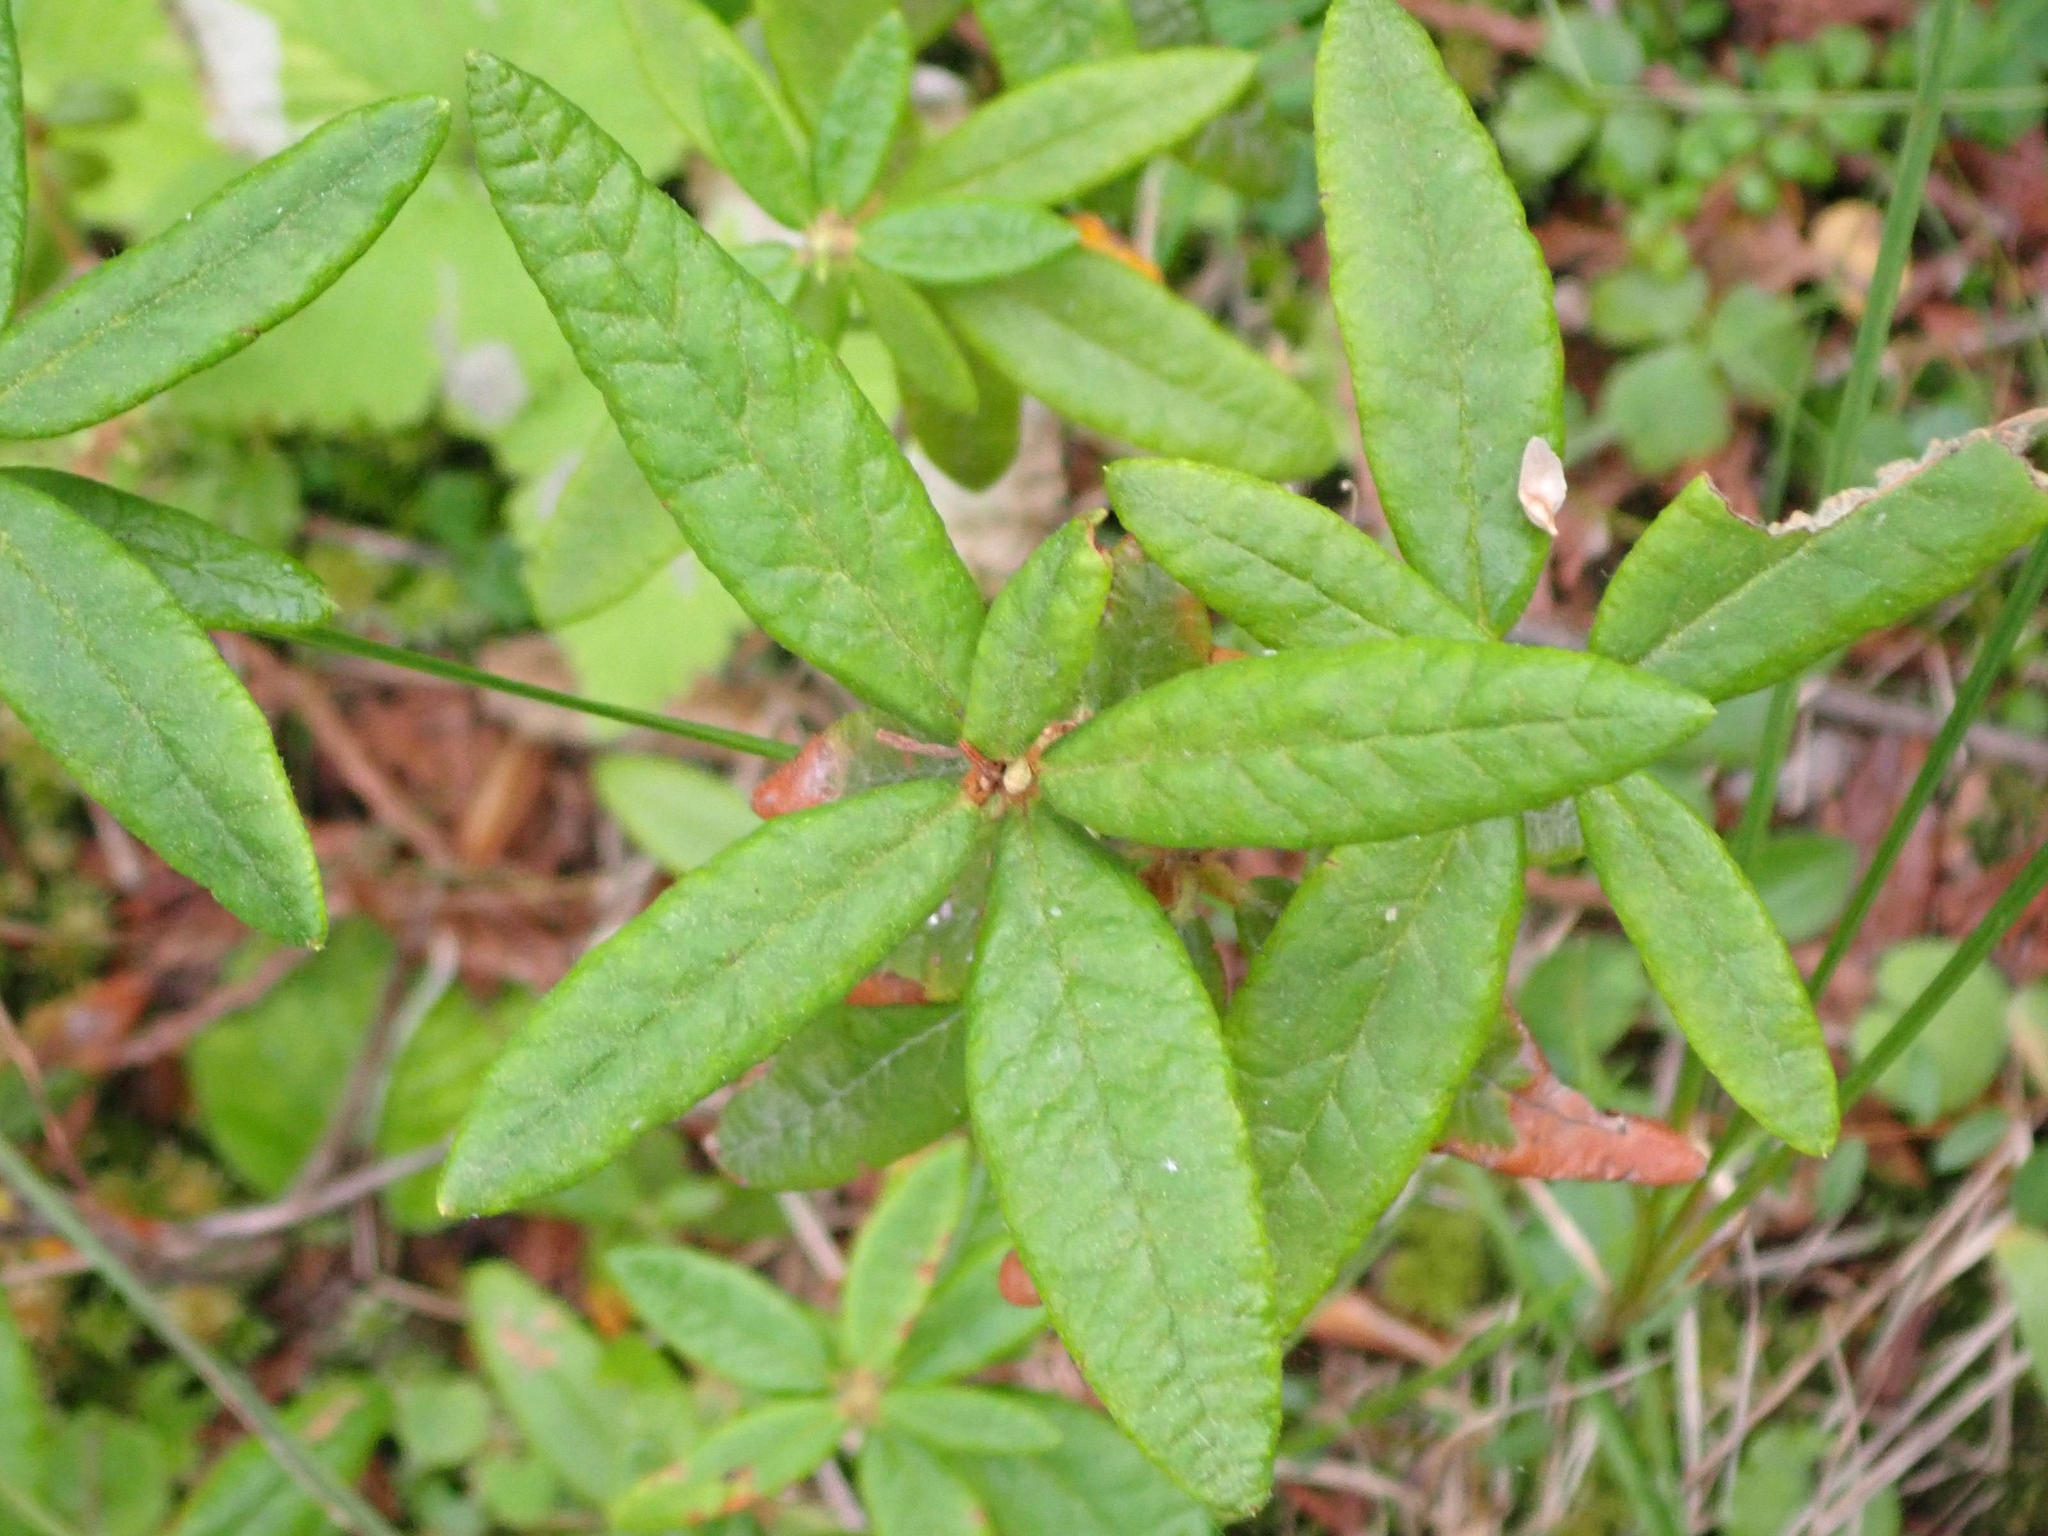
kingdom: Plantae
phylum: Tracheophyta
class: Magnoliopsida
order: Ericales
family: Ericaceae
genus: Rhododendron
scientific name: Rhododendron groenlandicum
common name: Bog labrador tea
